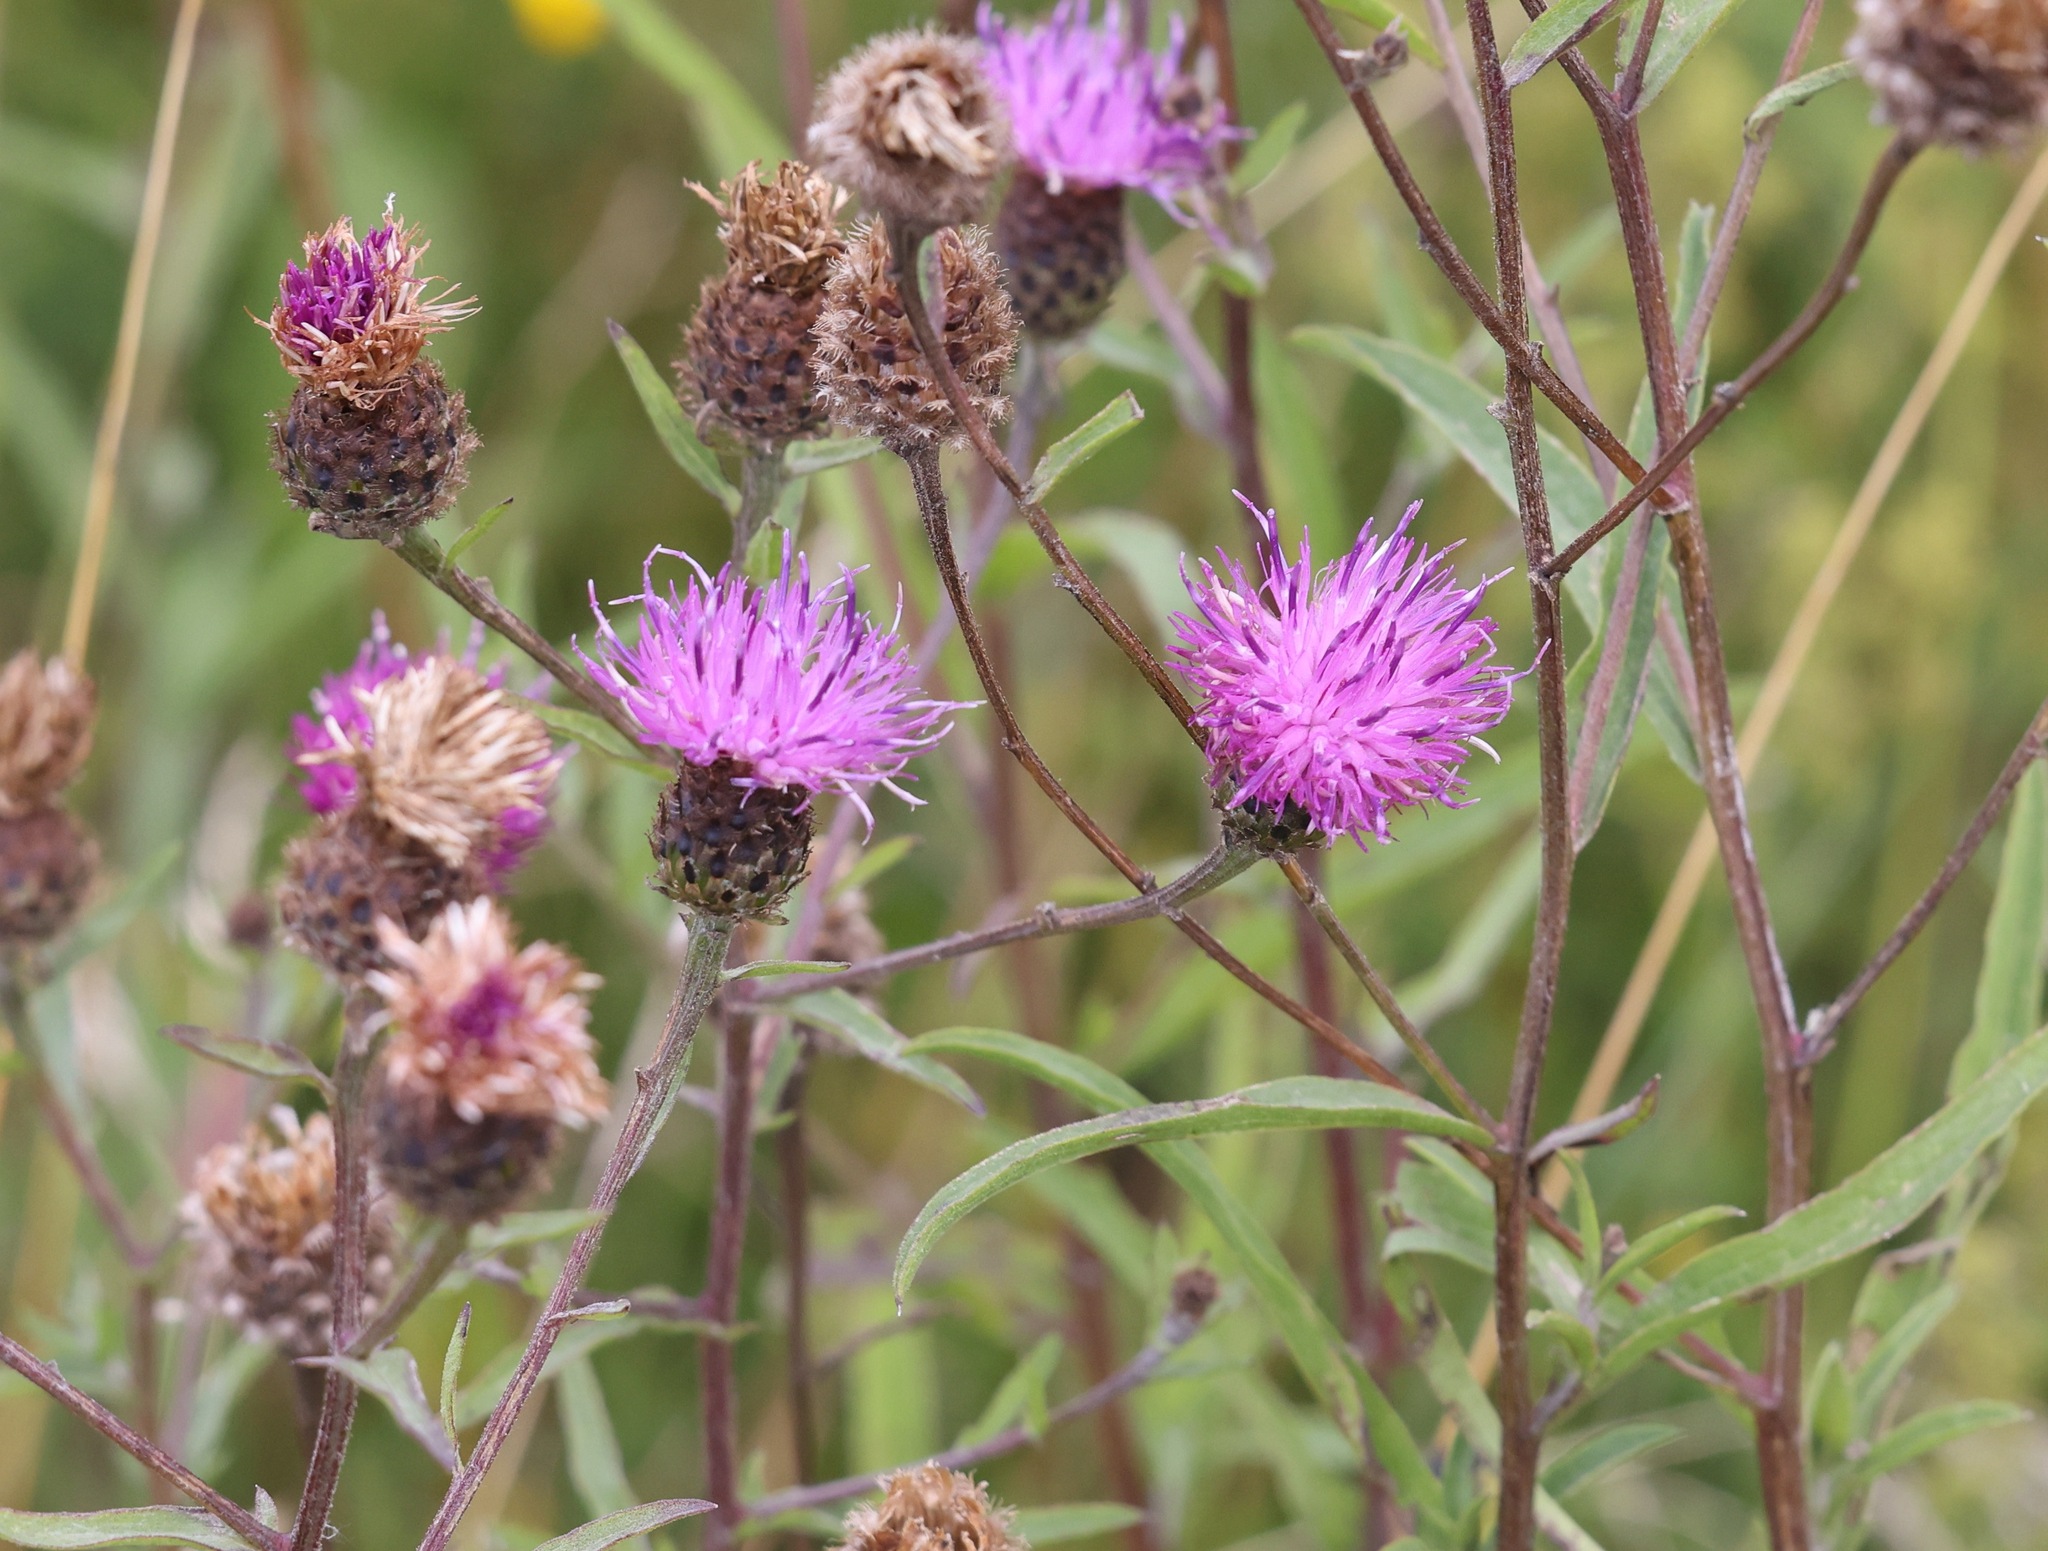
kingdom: Plantae
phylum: Tracheophyta
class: Magnoliopsida
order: Asterales
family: Asteraceae
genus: Centaurea
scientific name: Centaurea nigra
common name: Lesser knapweed
